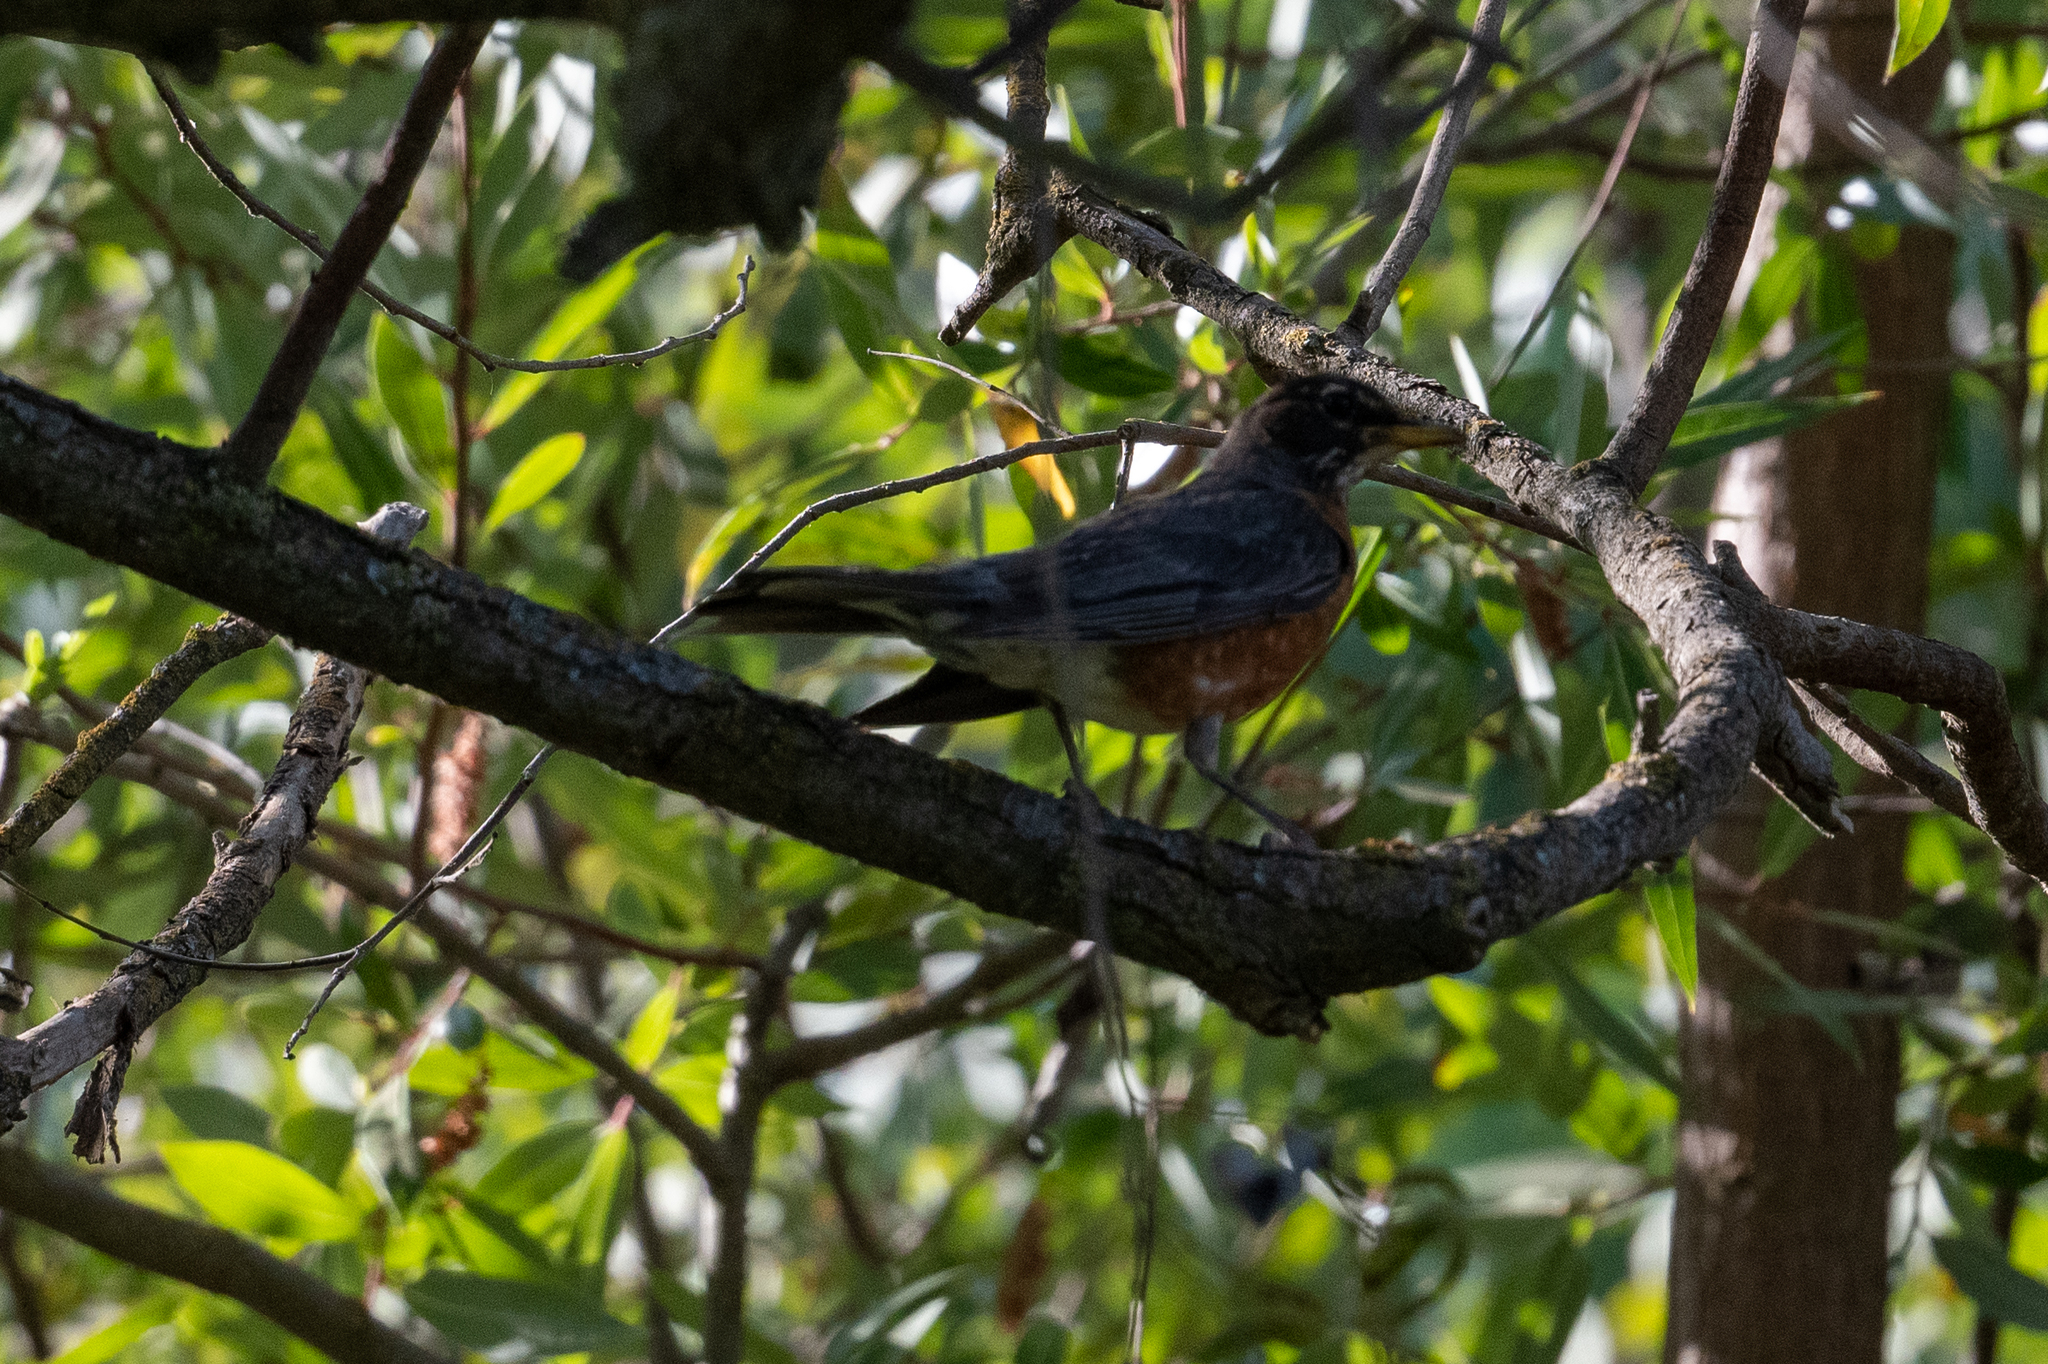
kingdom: Animalia
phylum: Chordata
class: Aves
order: Passeriformes
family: Turdidae
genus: Turdus
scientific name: Turdus migratorius
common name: American robin
